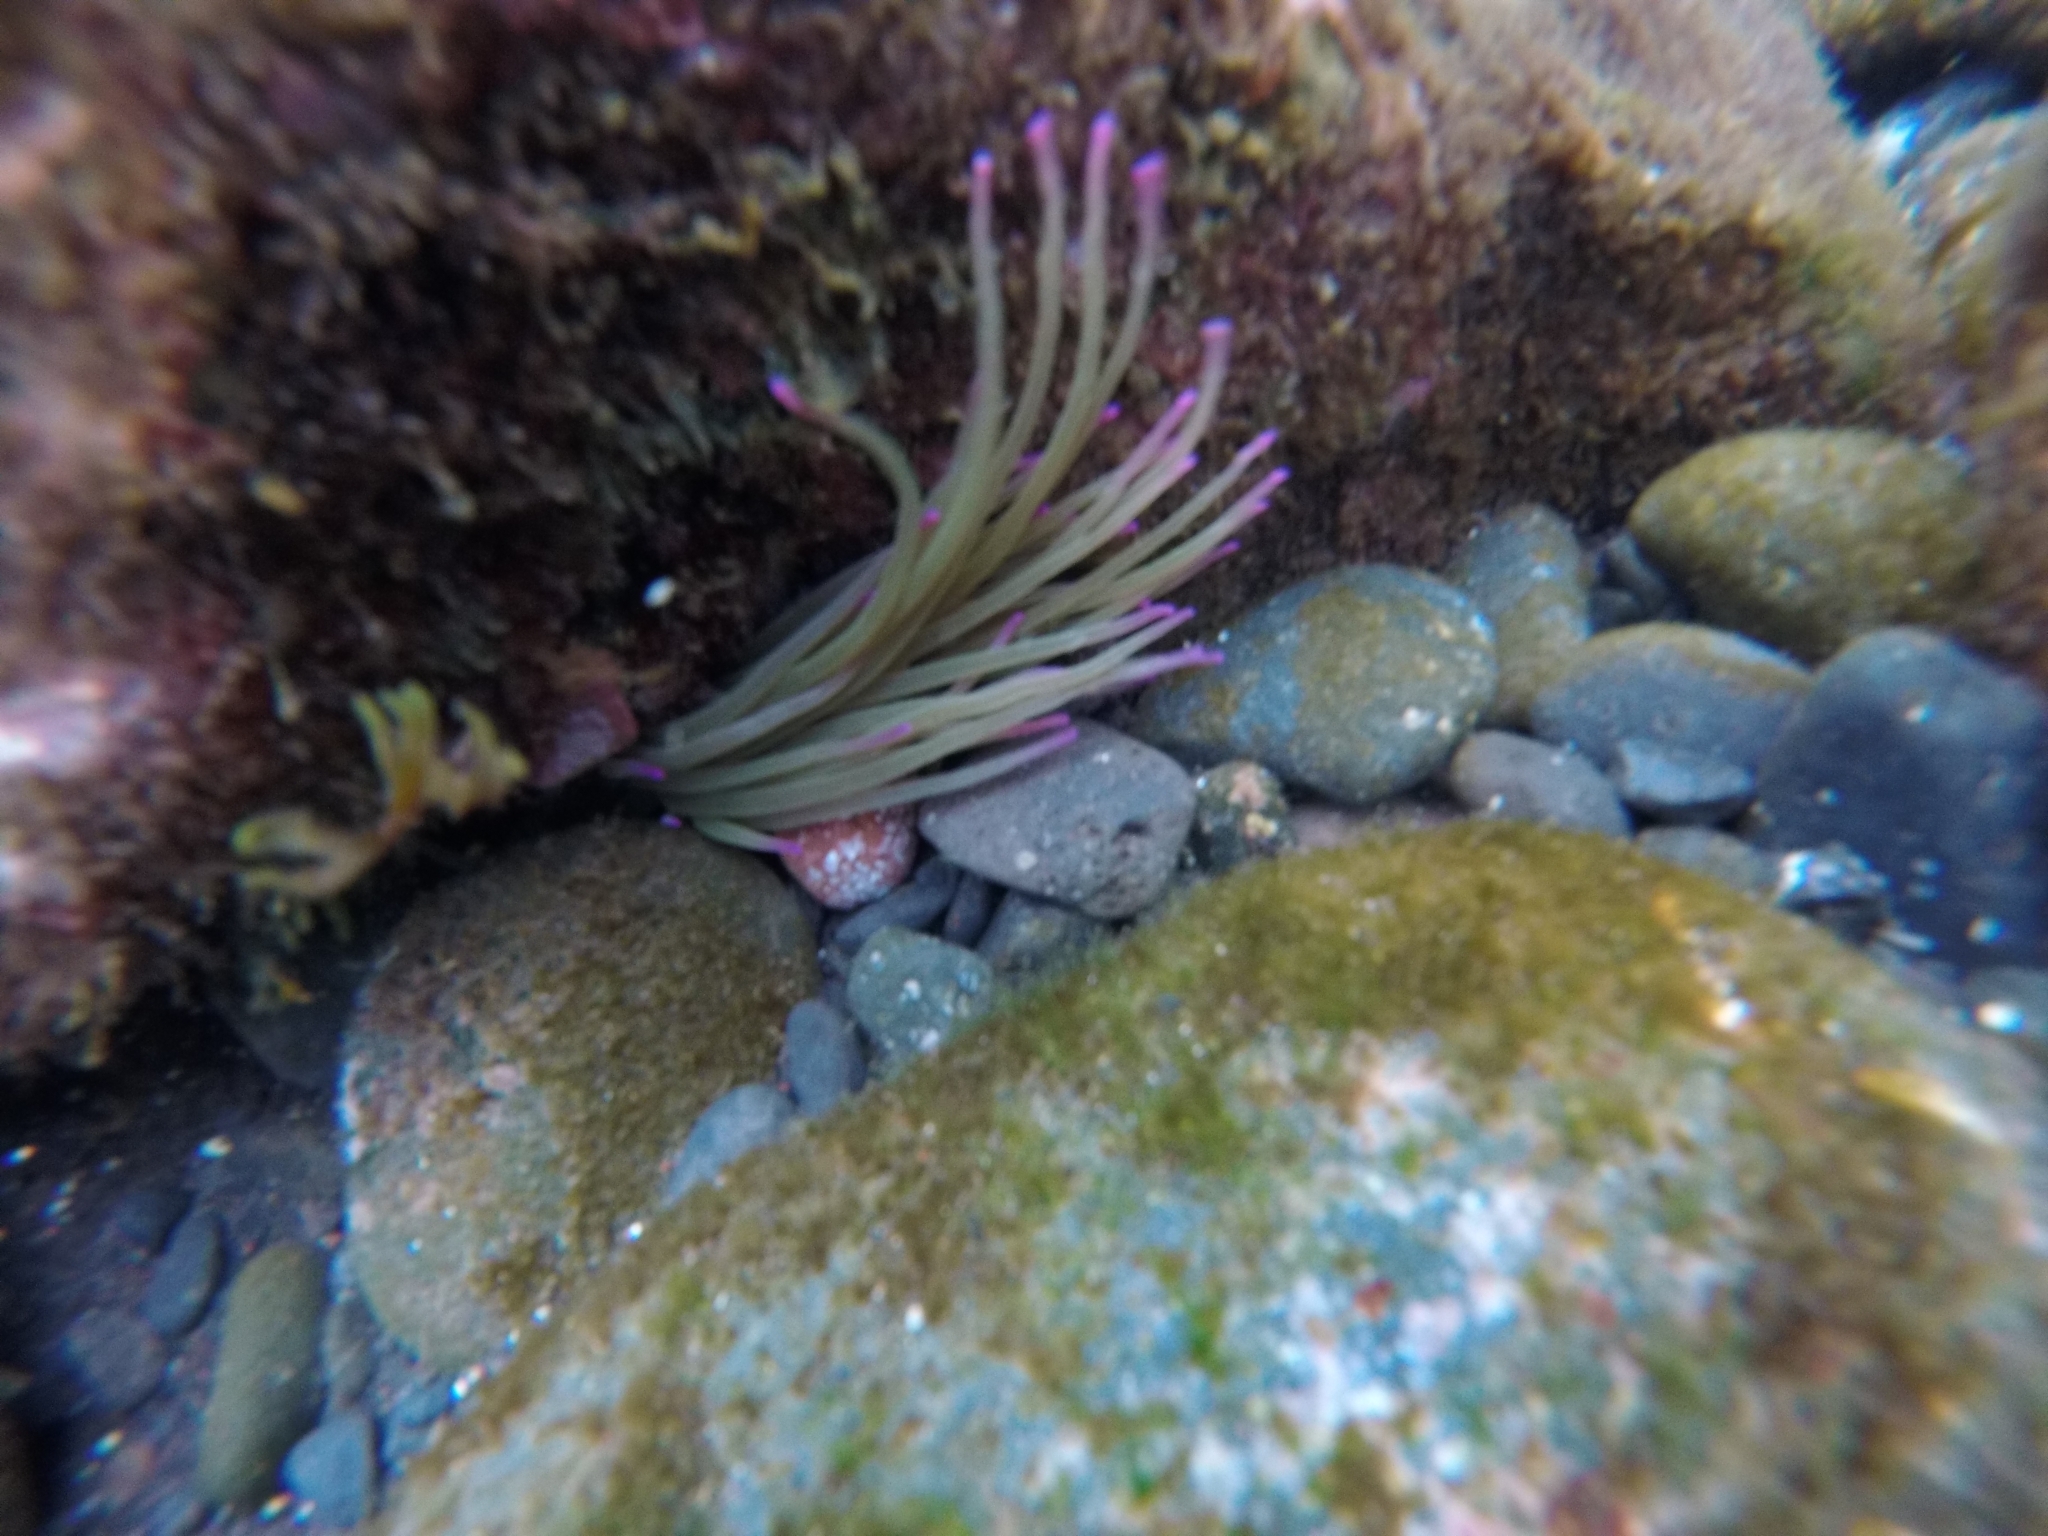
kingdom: Animalia
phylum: Cnidaria
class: Anthozoa
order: Actiniaria
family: Actiniidae
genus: Anemonia
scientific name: Anemonia viridis
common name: Snakelocks anemone
